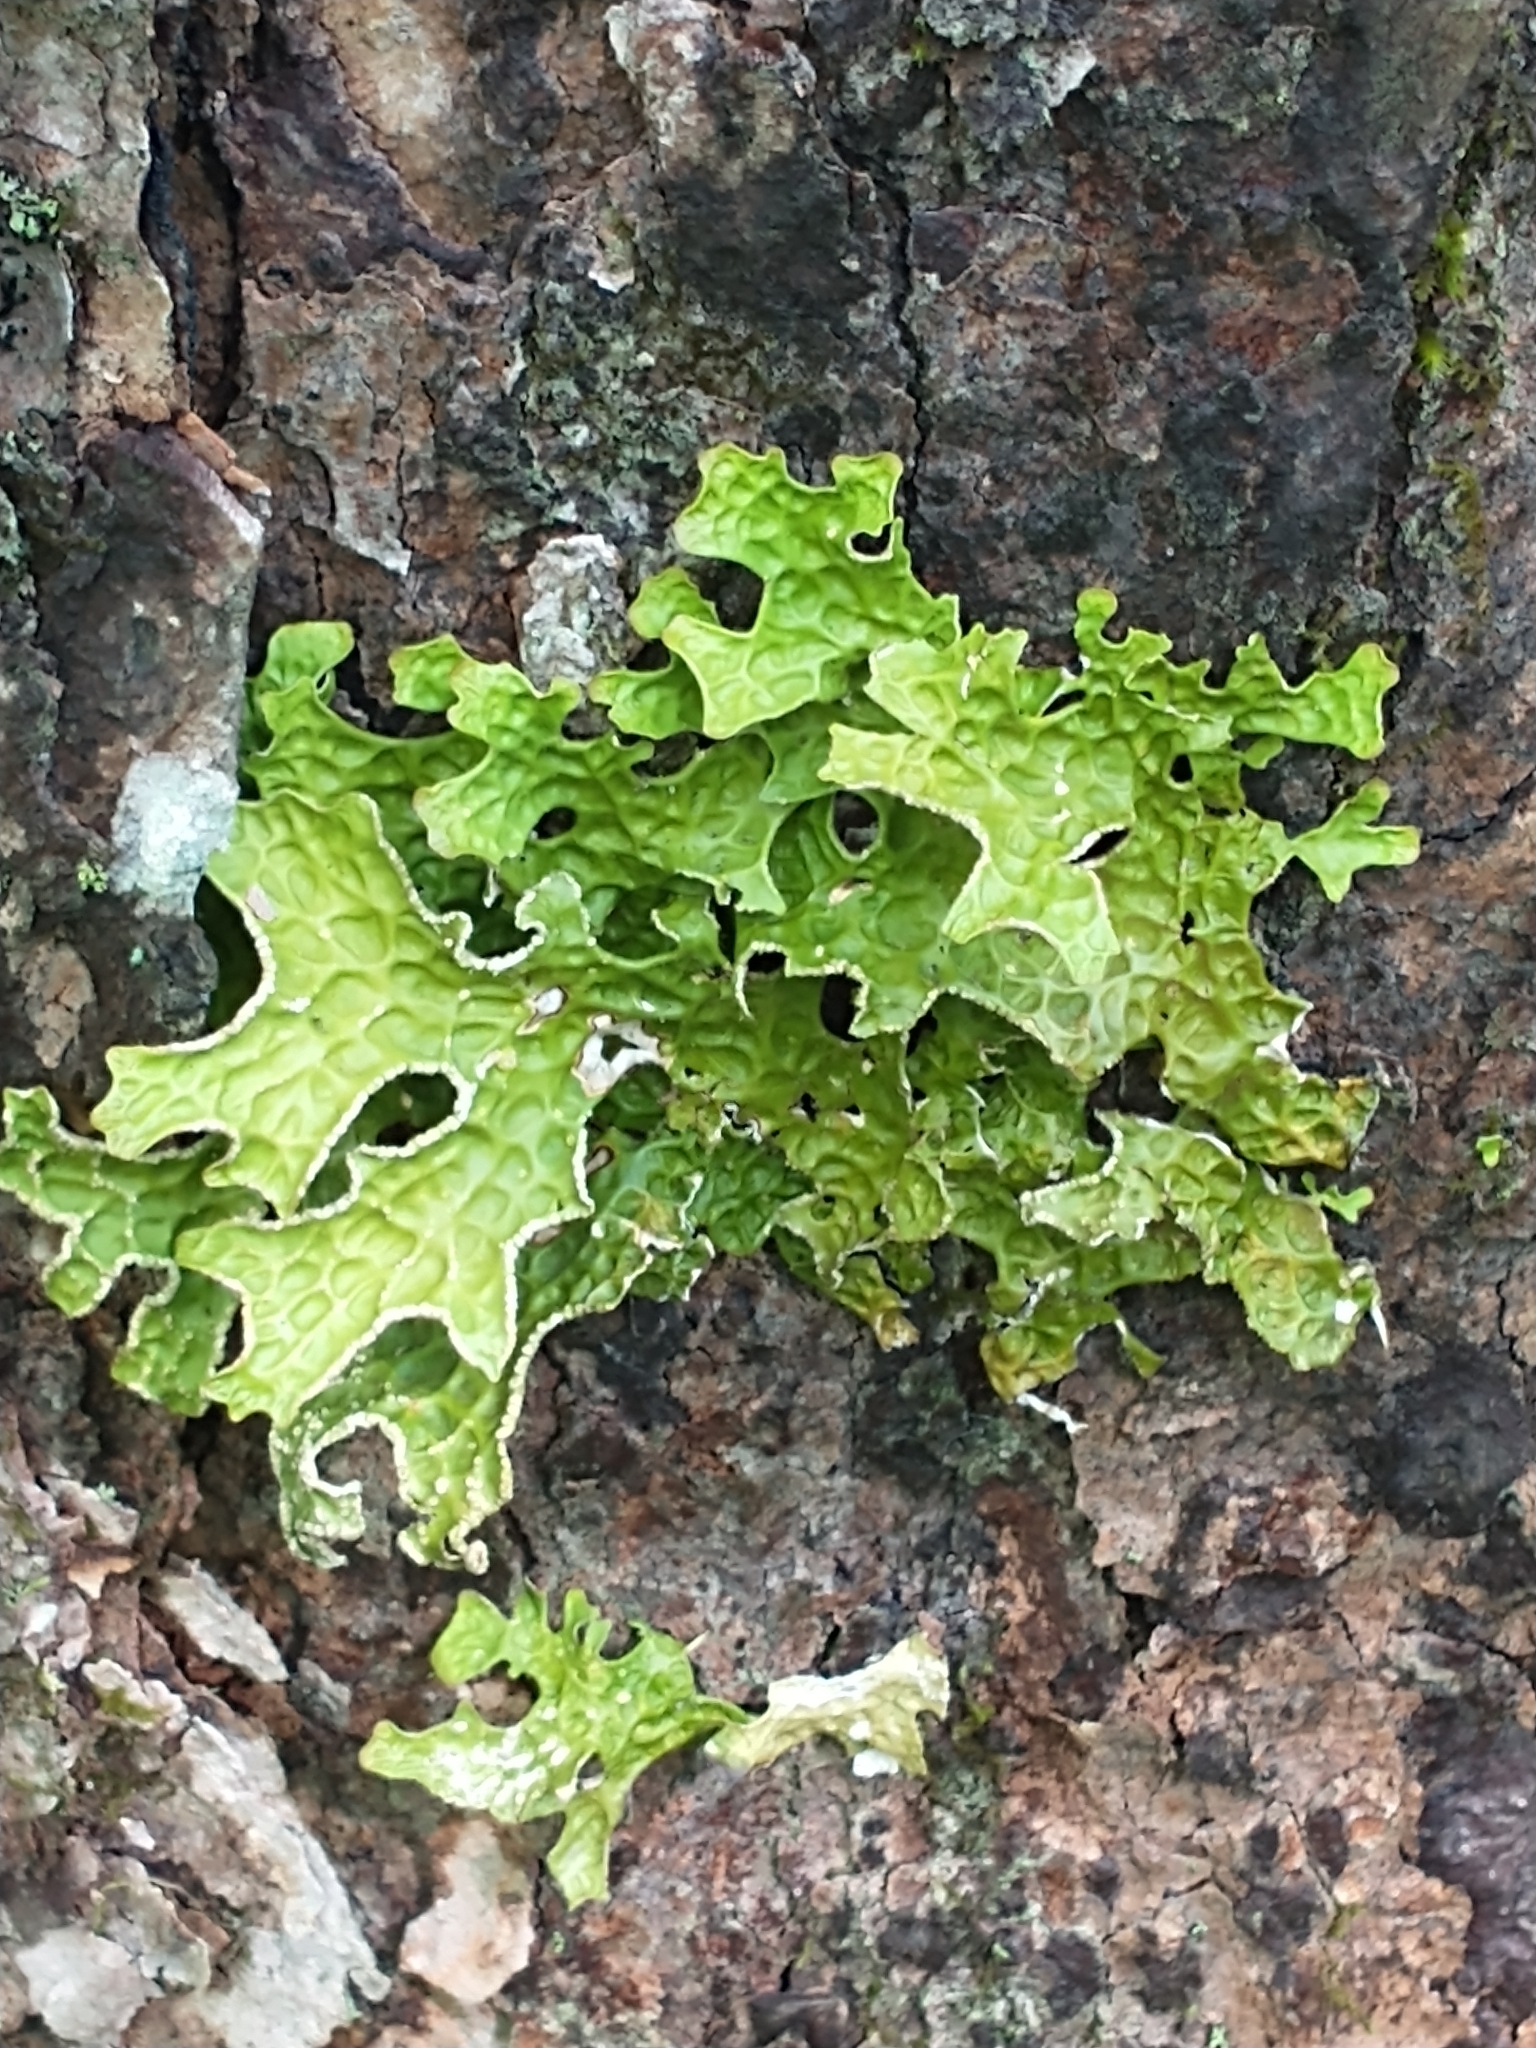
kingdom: Fungi
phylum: Ascomycota
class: Lecanoromycetes
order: Peltigerales
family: Lobariaceae
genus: Lobaria
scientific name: Lobaria pulmonaria
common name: Lungwort
